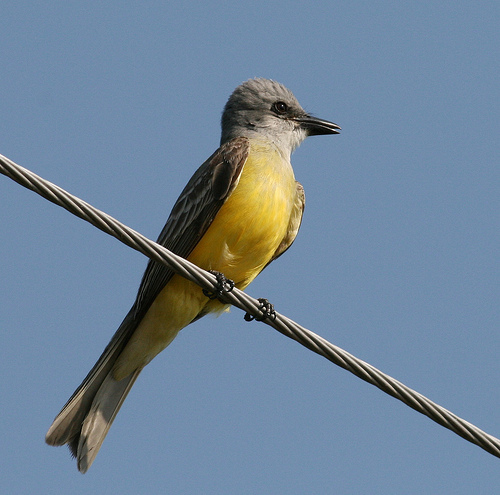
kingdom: Animalia
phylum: Chordata
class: Aves
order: Passeriformes
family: Tyrannidae
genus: Tyrannus
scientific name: Tyrannus
